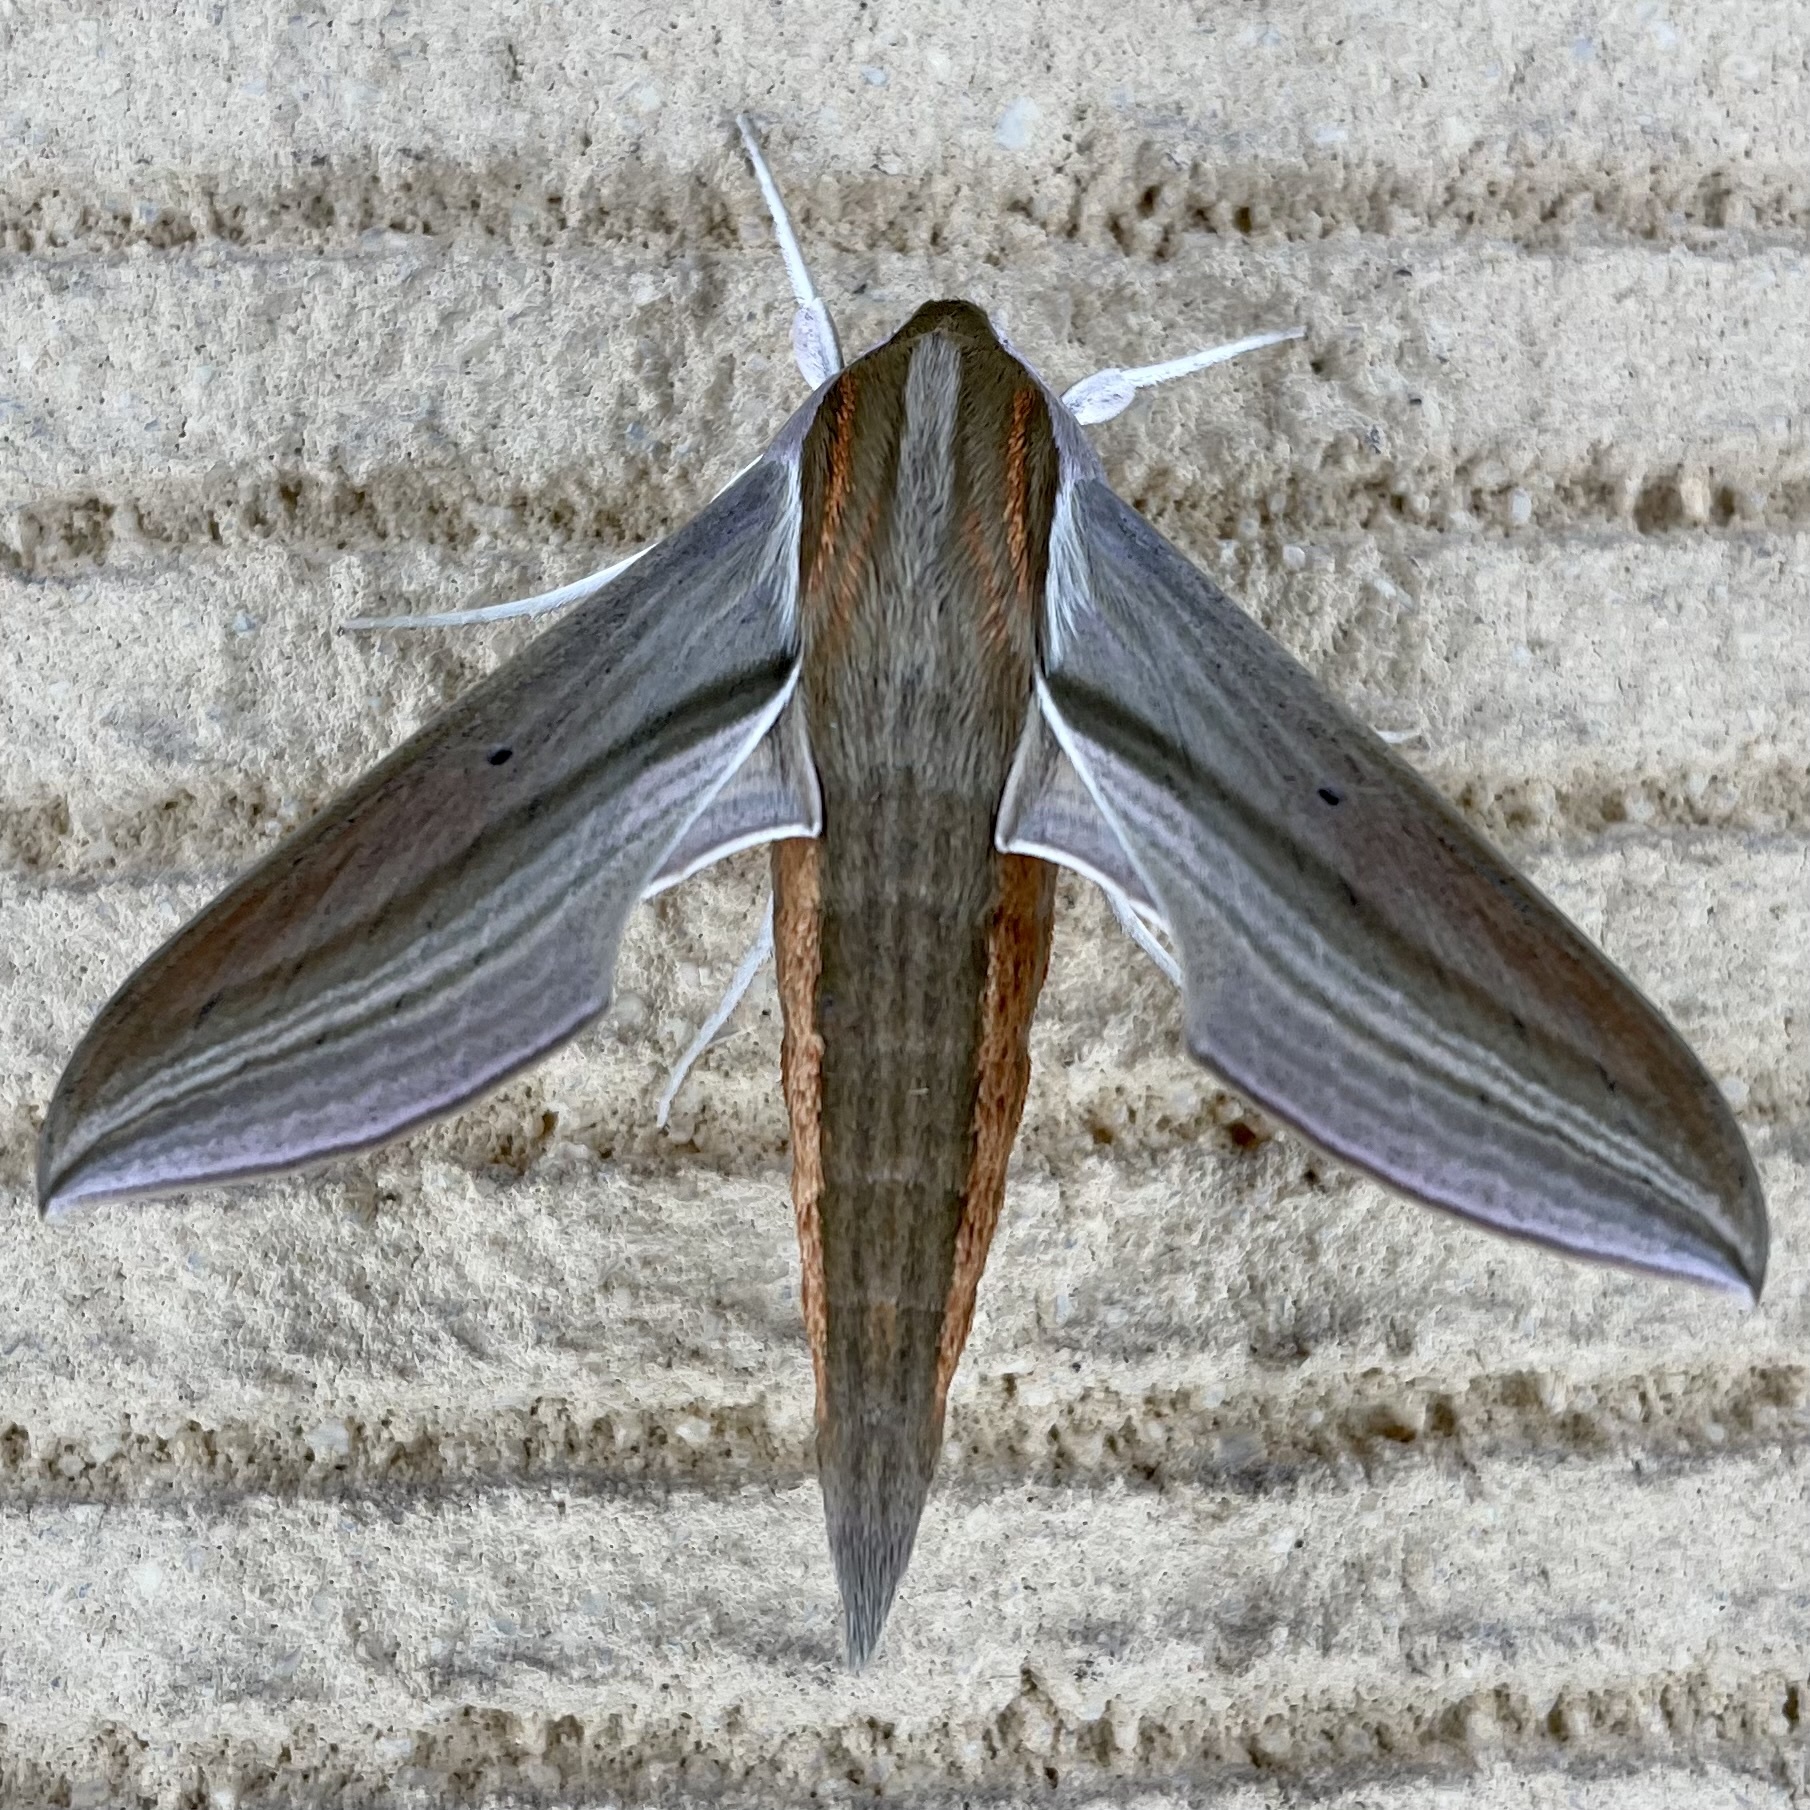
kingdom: Animalia
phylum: Arthropoda
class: Insecta
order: Lepidoptera
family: Sphingidae
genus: Theretra
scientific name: Theretra japonica
